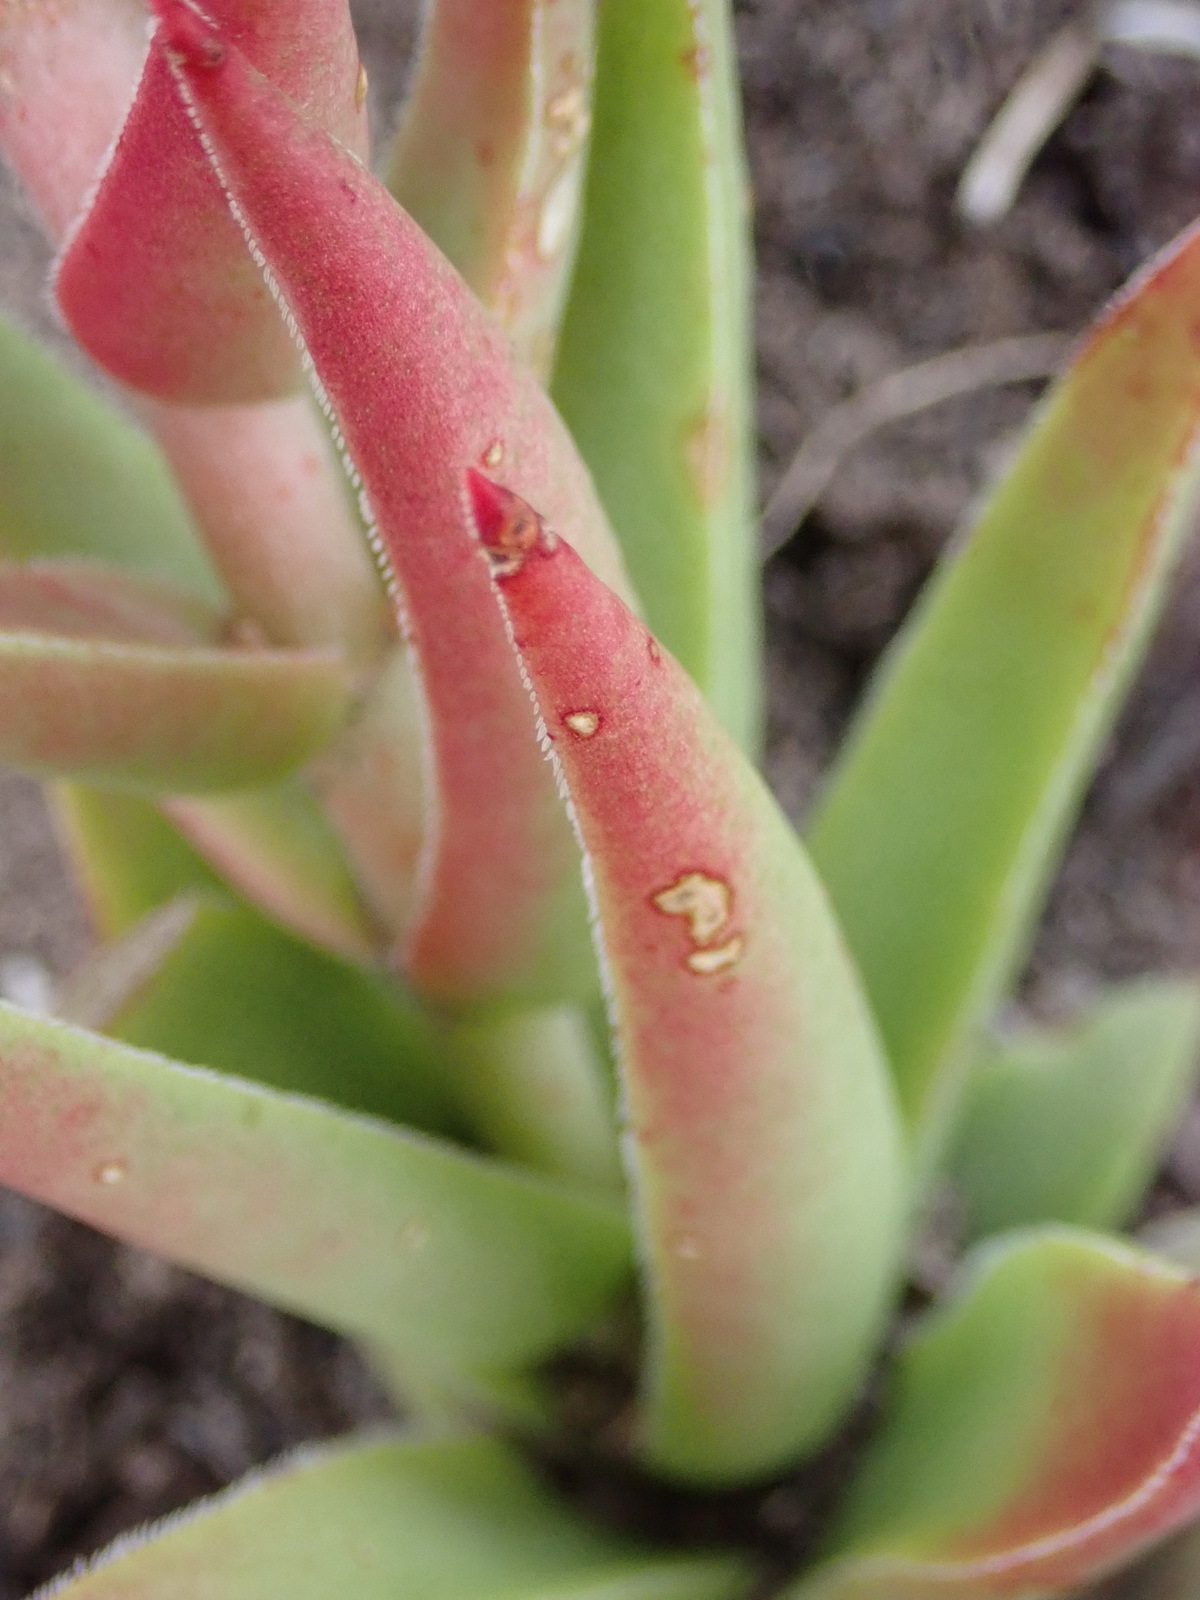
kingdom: Plantae
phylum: Tracheophyta
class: Magnoliopsida
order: Saxifragales
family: Crassulaceae
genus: Crassula
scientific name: Crassula capitella
